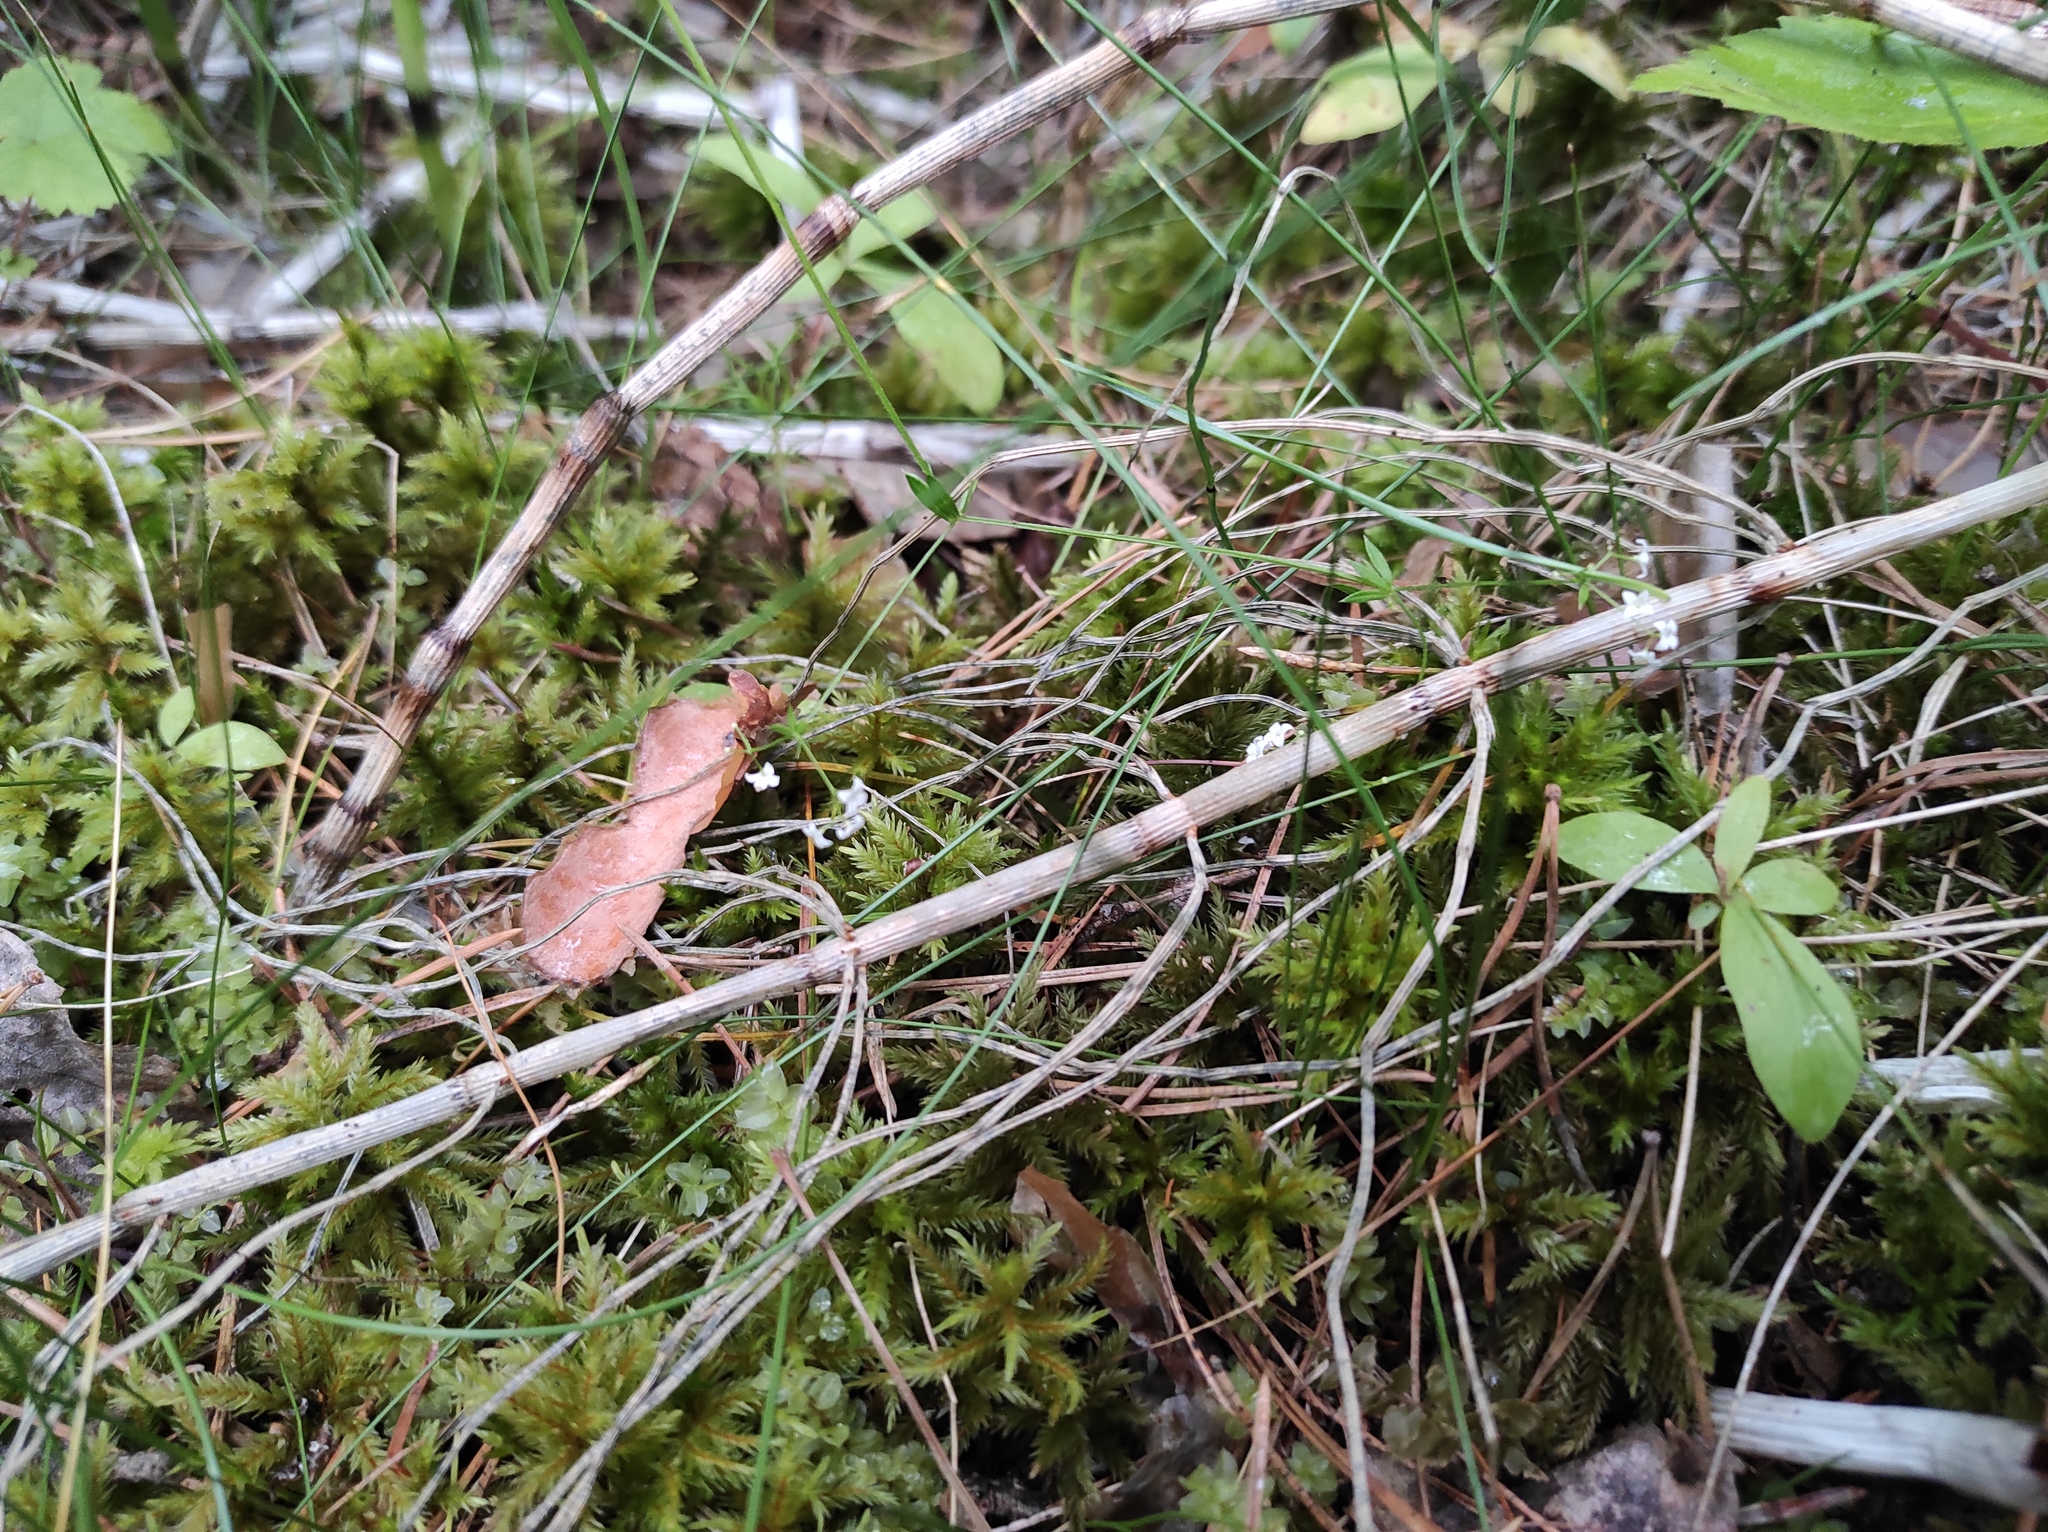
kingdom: Plantae
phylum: Tracheophyta
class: Magnoliopsida
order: Gentianales
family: Rubiaceae
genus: Galium
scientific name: Galium uliginosum
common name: Fen bedstraw
